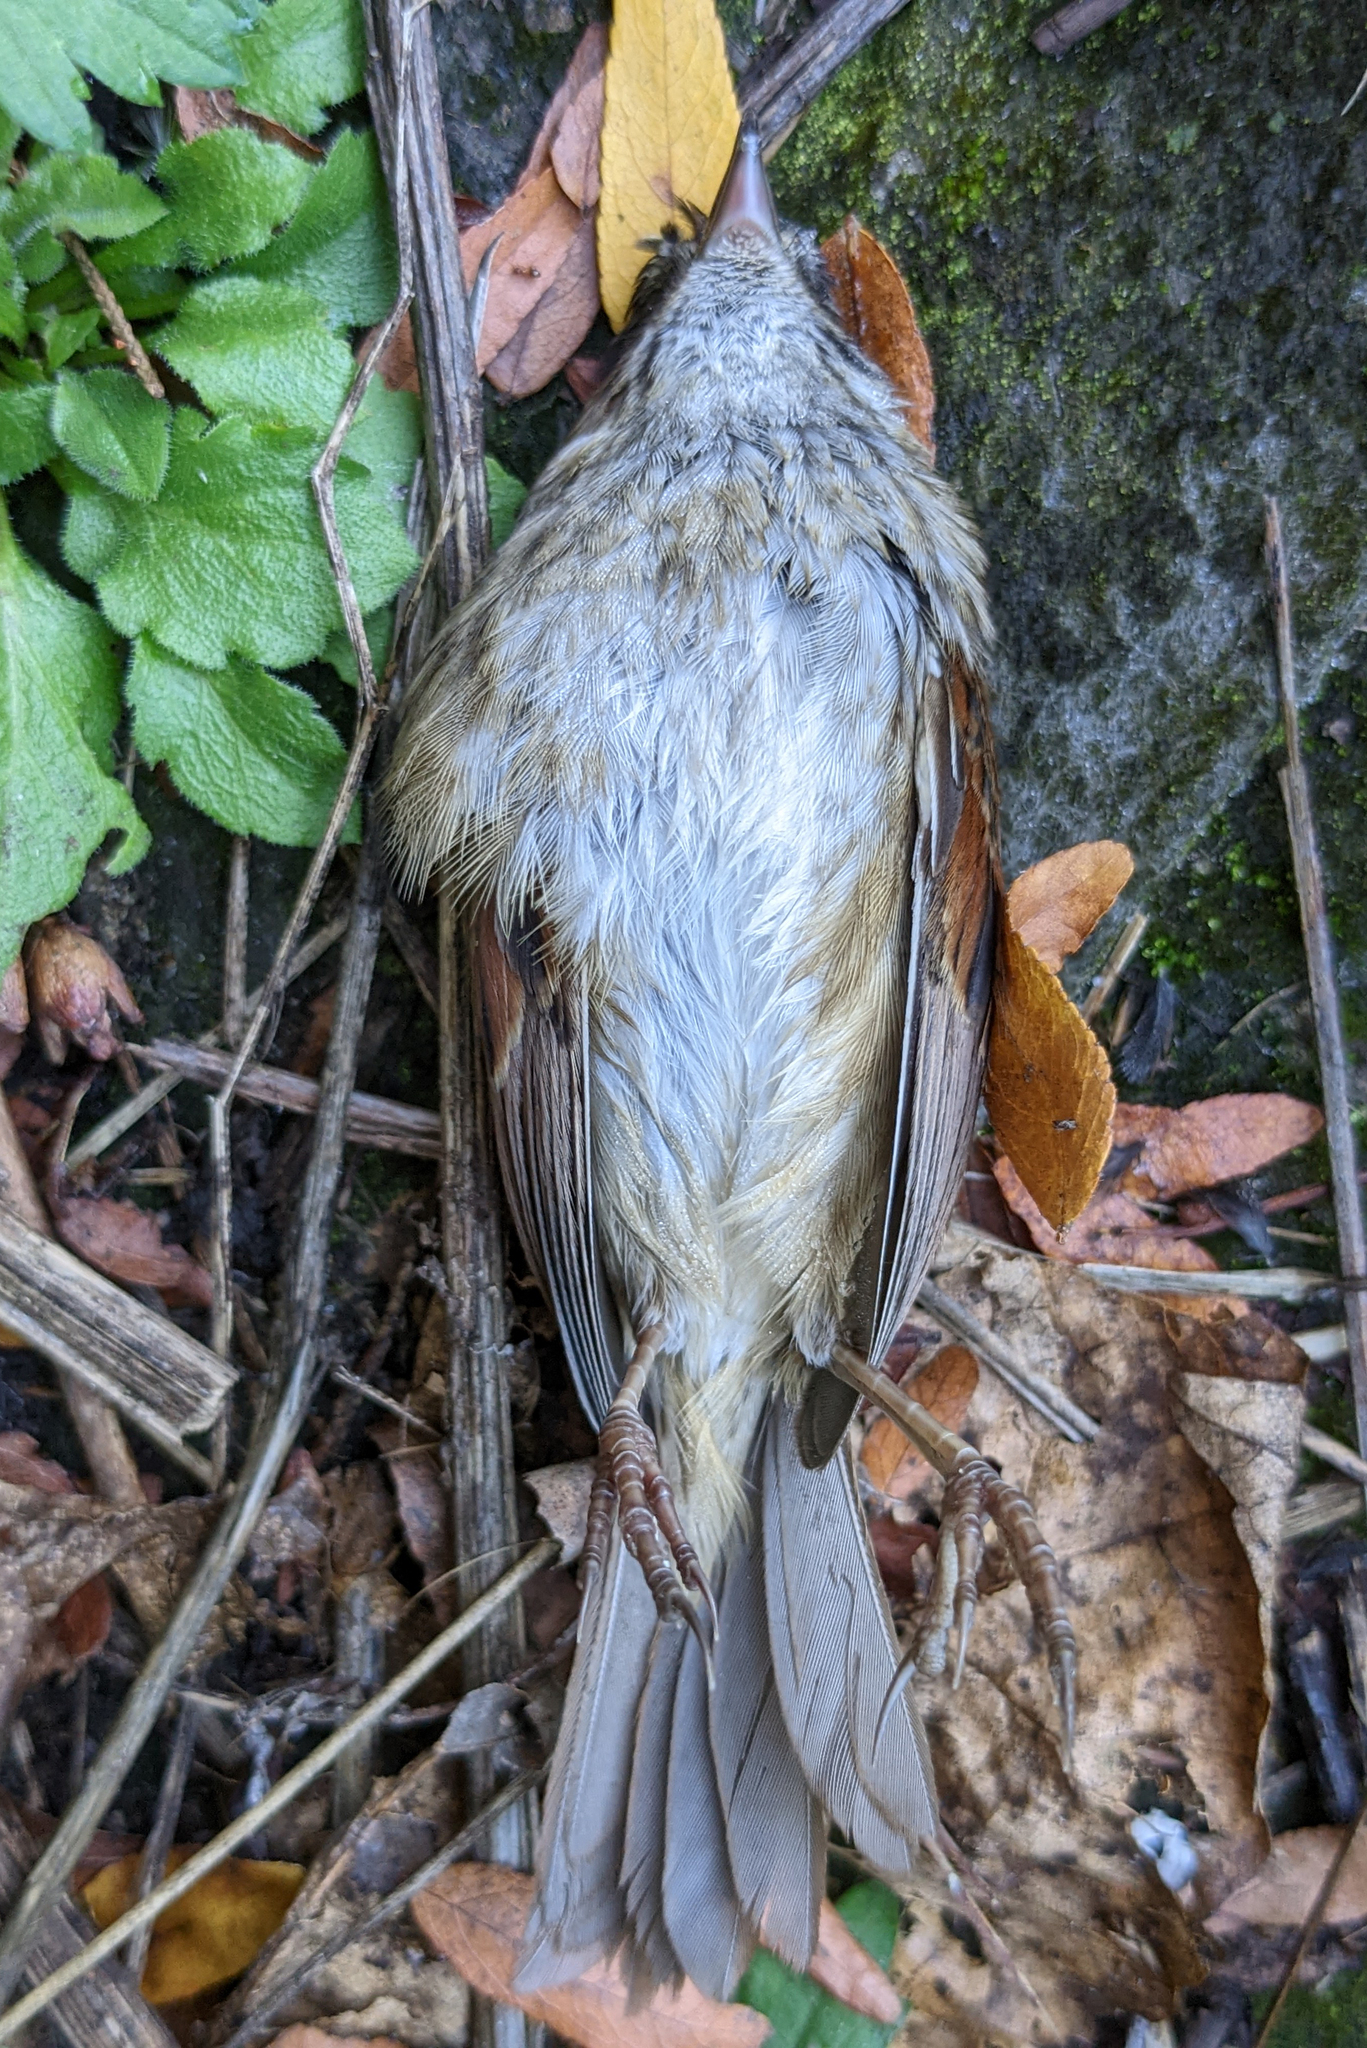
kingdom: Animalia
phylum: Chordata
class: Aves
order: Passeriformes
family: Passerellidae
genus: Melospiza
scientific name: Melospiza georgiana
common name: Swamp sparrow
